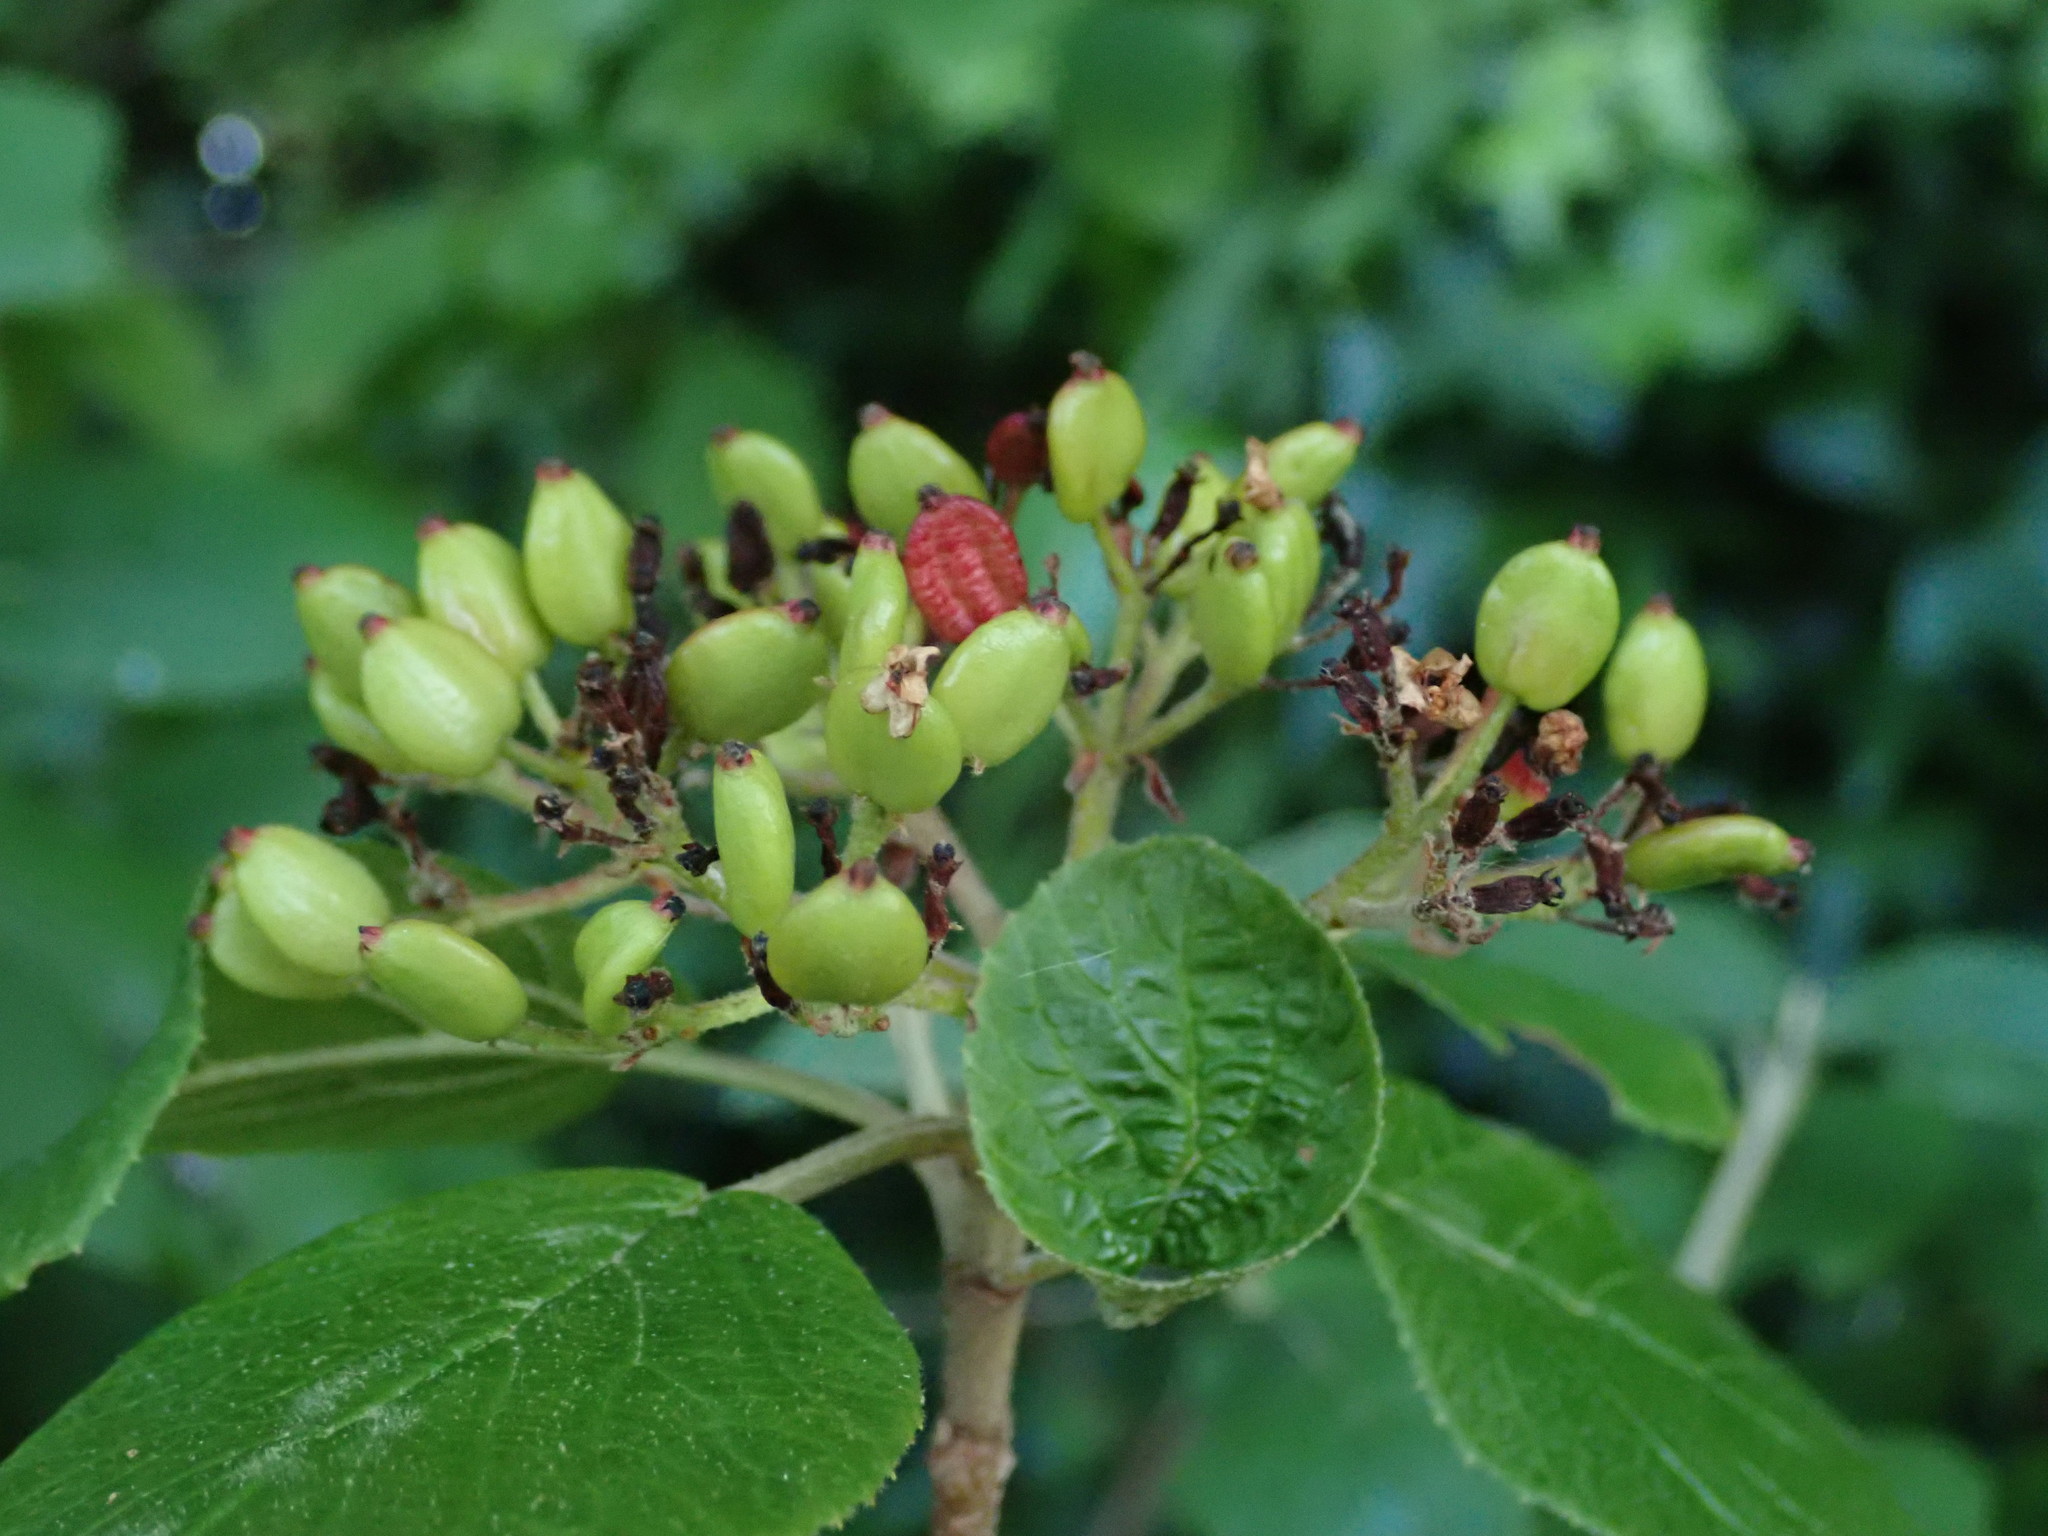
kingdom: Plantae
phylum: Tracheophyta
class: Magnoliopsida
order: Dipsacales
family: Viburnaceae
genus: Viburnum
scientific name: Viburnum lantana
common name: Wayfaring tree
